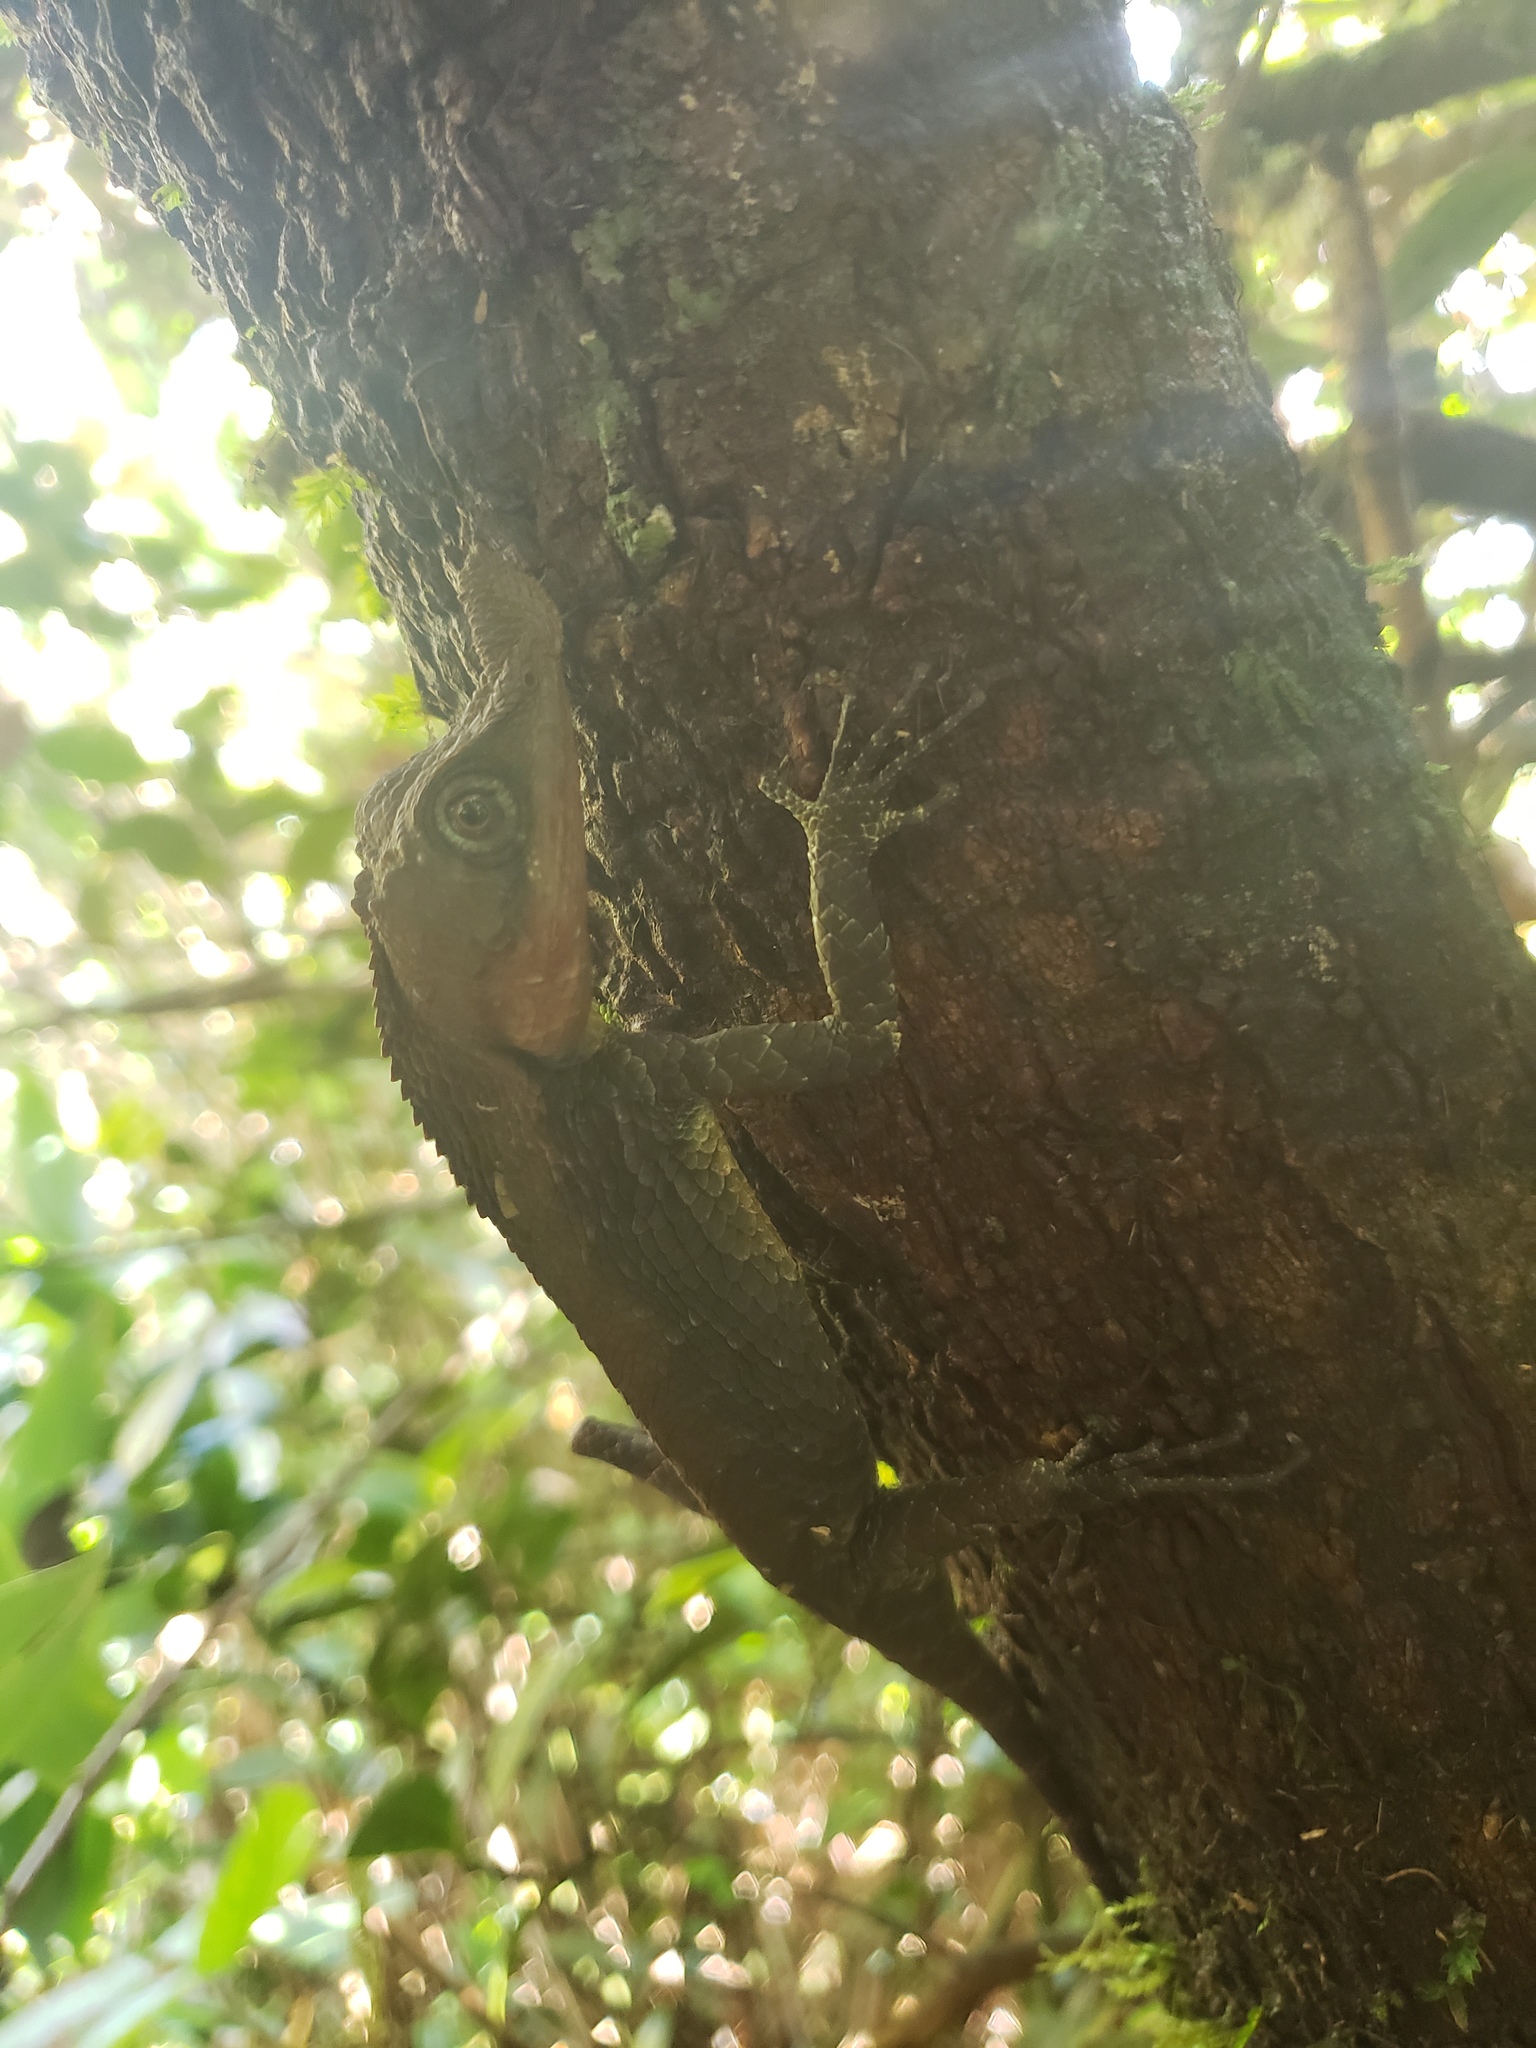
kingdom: Animalia
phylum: Chordata
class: Squamata
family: Agamidae
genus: Ceratophora
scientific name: Ceratophora tennentii
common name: Rhinoceros agama
